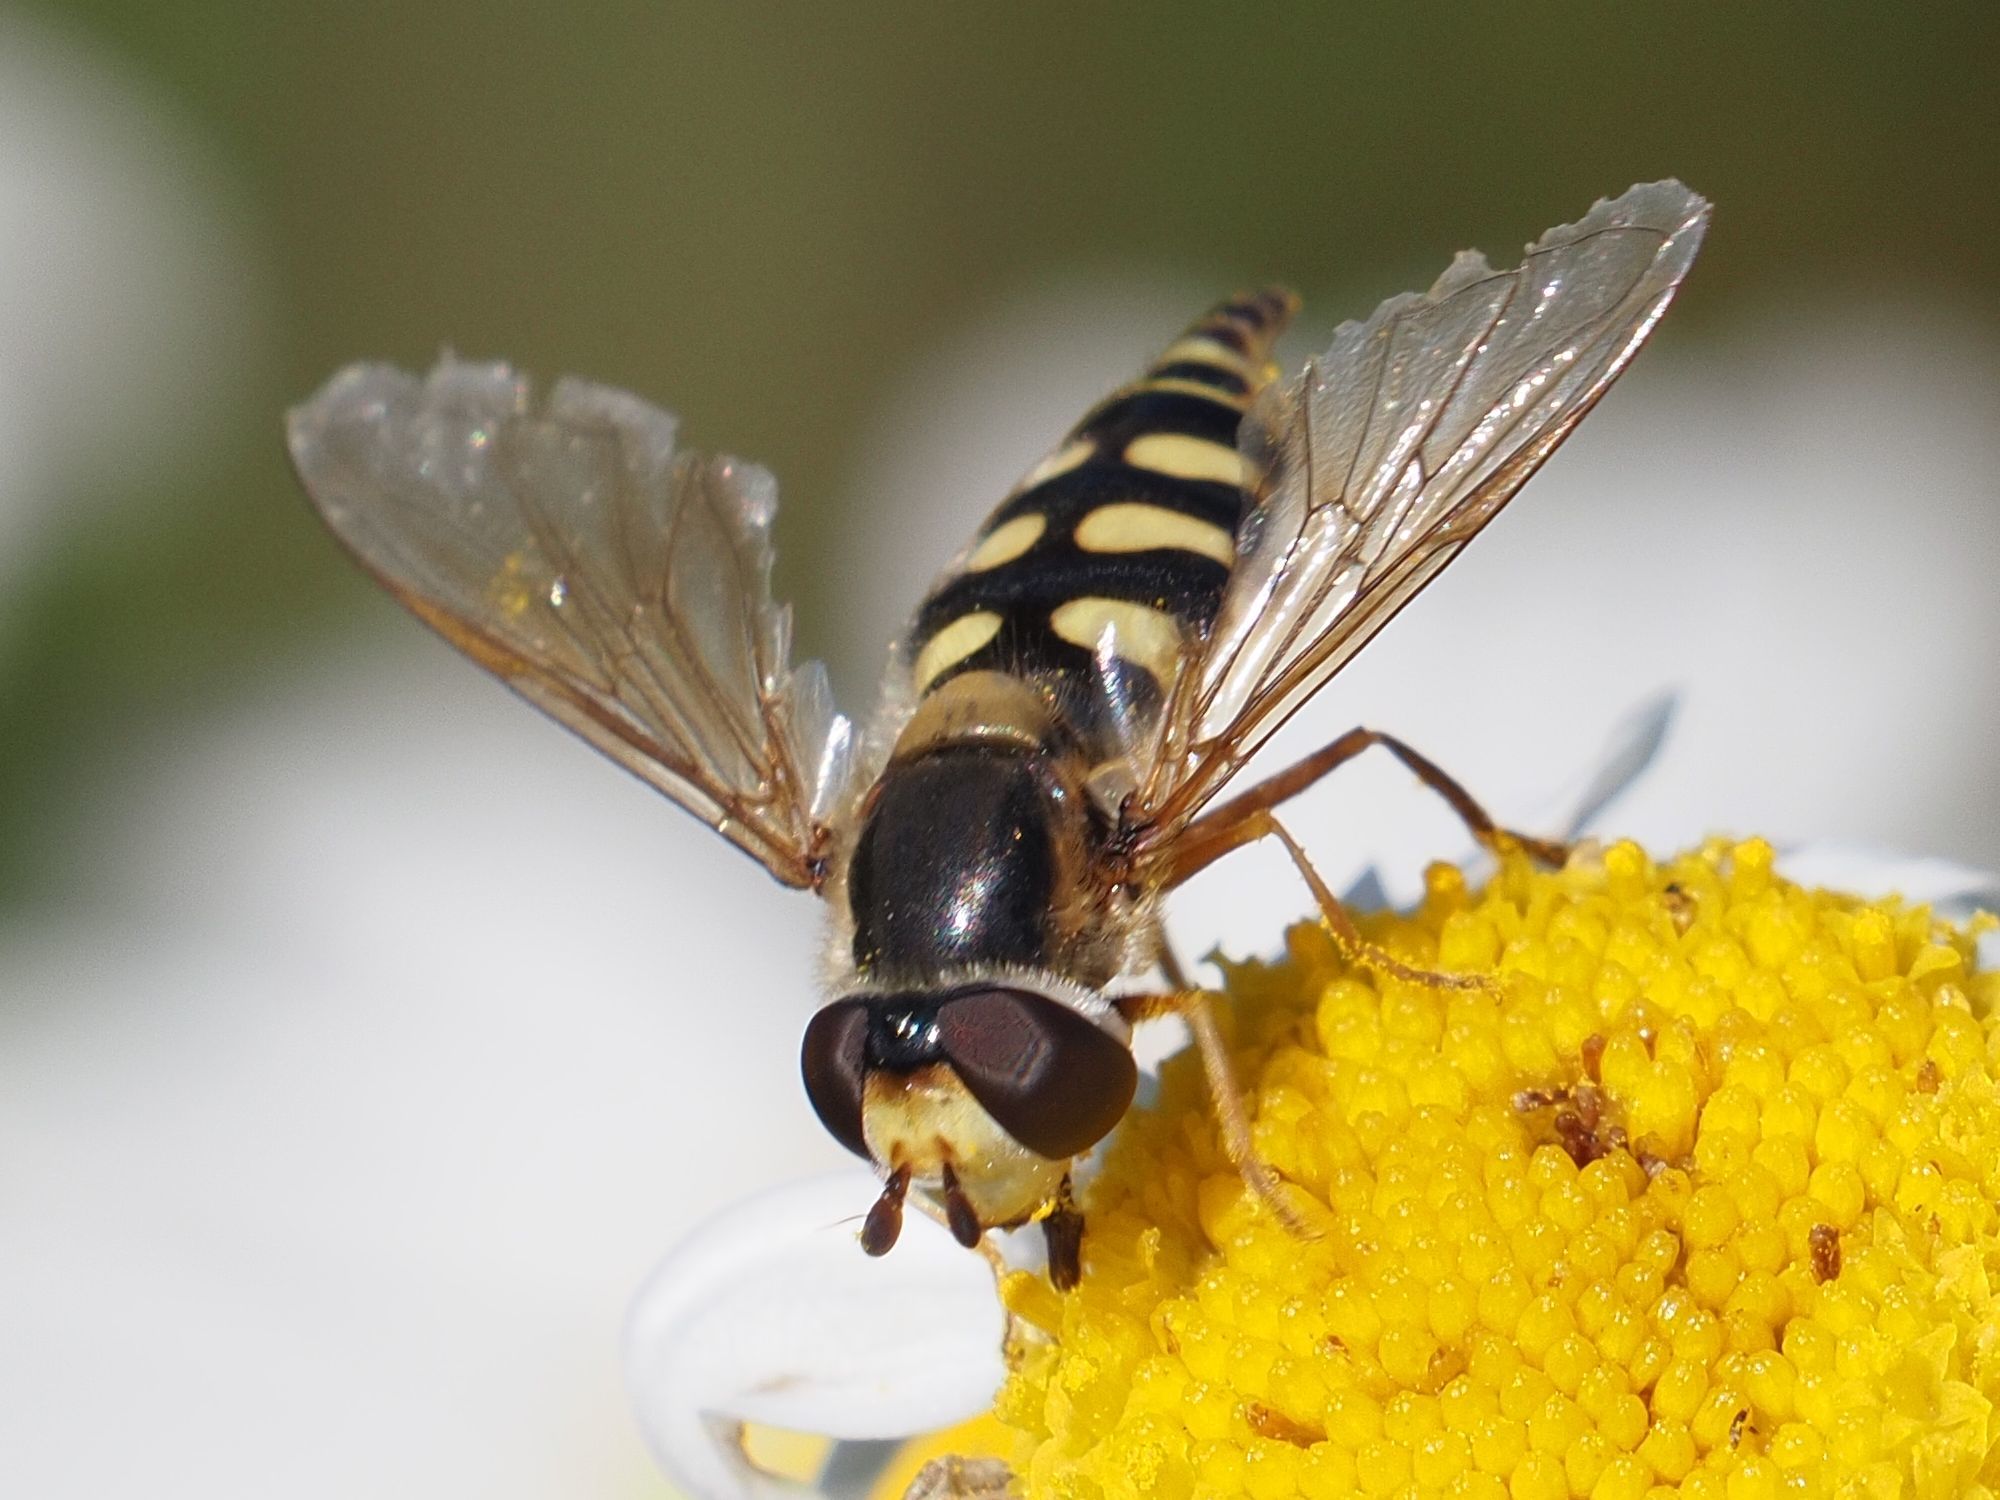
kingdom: Animalia
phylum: Arthropoda
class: Insecta
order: Diptera
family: Syrphidae
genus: Eupeodes
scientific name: Eupeodes corollae
